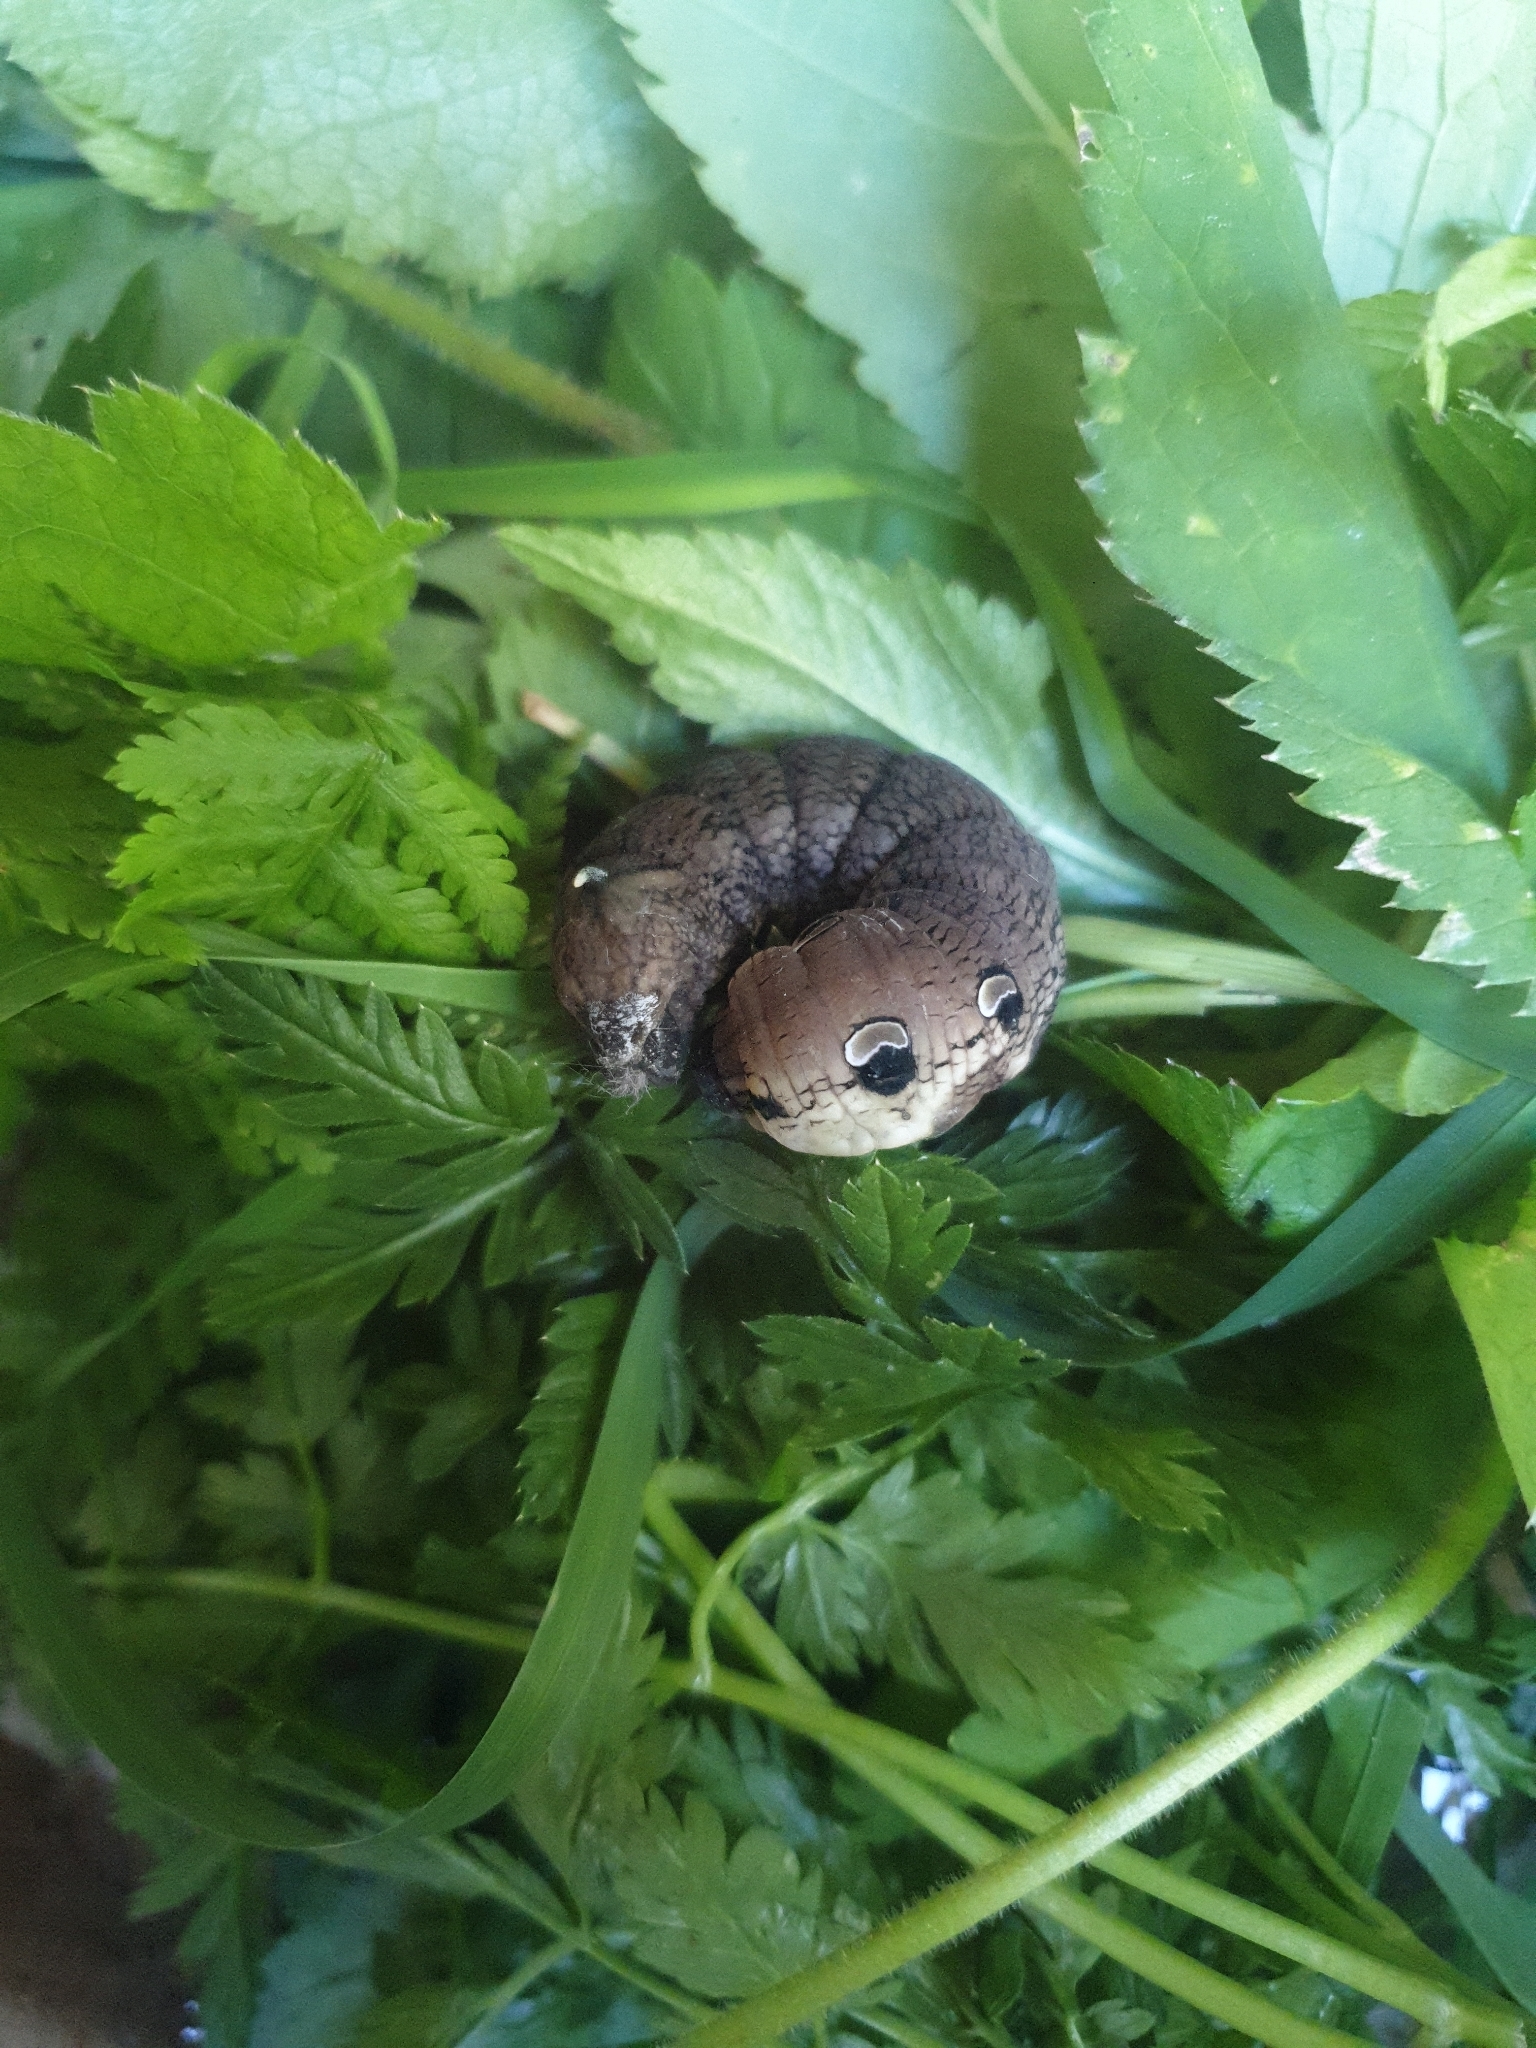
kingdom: Animalia
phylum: Arthropoda
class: Insecta
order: Lepidoptera
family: Sphingidae
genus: Deilephila
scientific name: Deilephila elpenor
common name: Elephant hawk-moth
